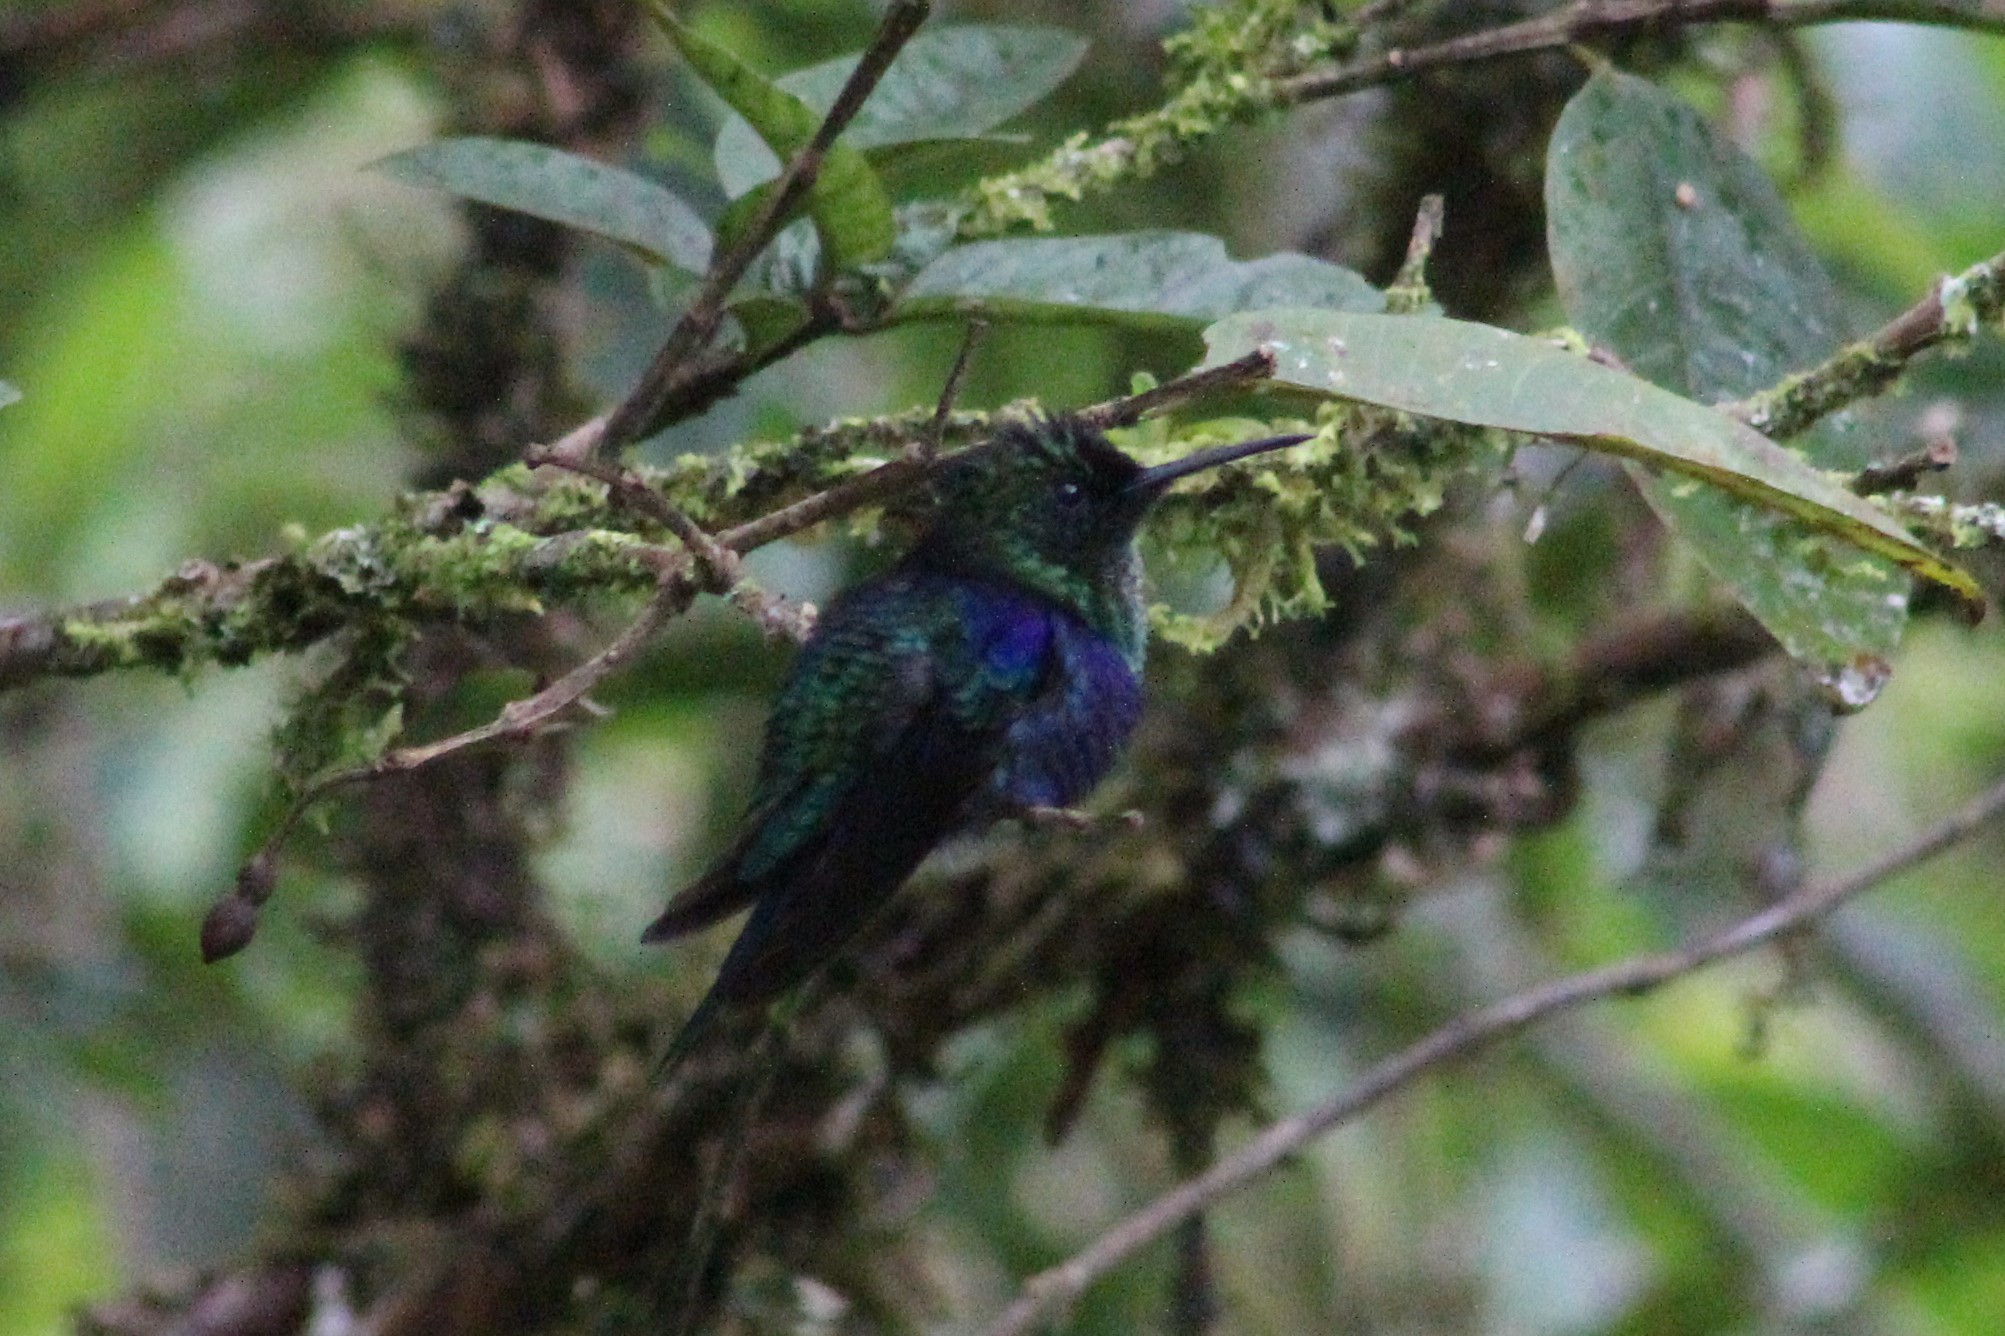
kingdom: Animalia
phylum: Chordata
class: Aves
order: Apodiformes
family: Trochilidae
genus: Thalurania
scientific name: Thalurania colombica
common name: Crowned woodnymph
